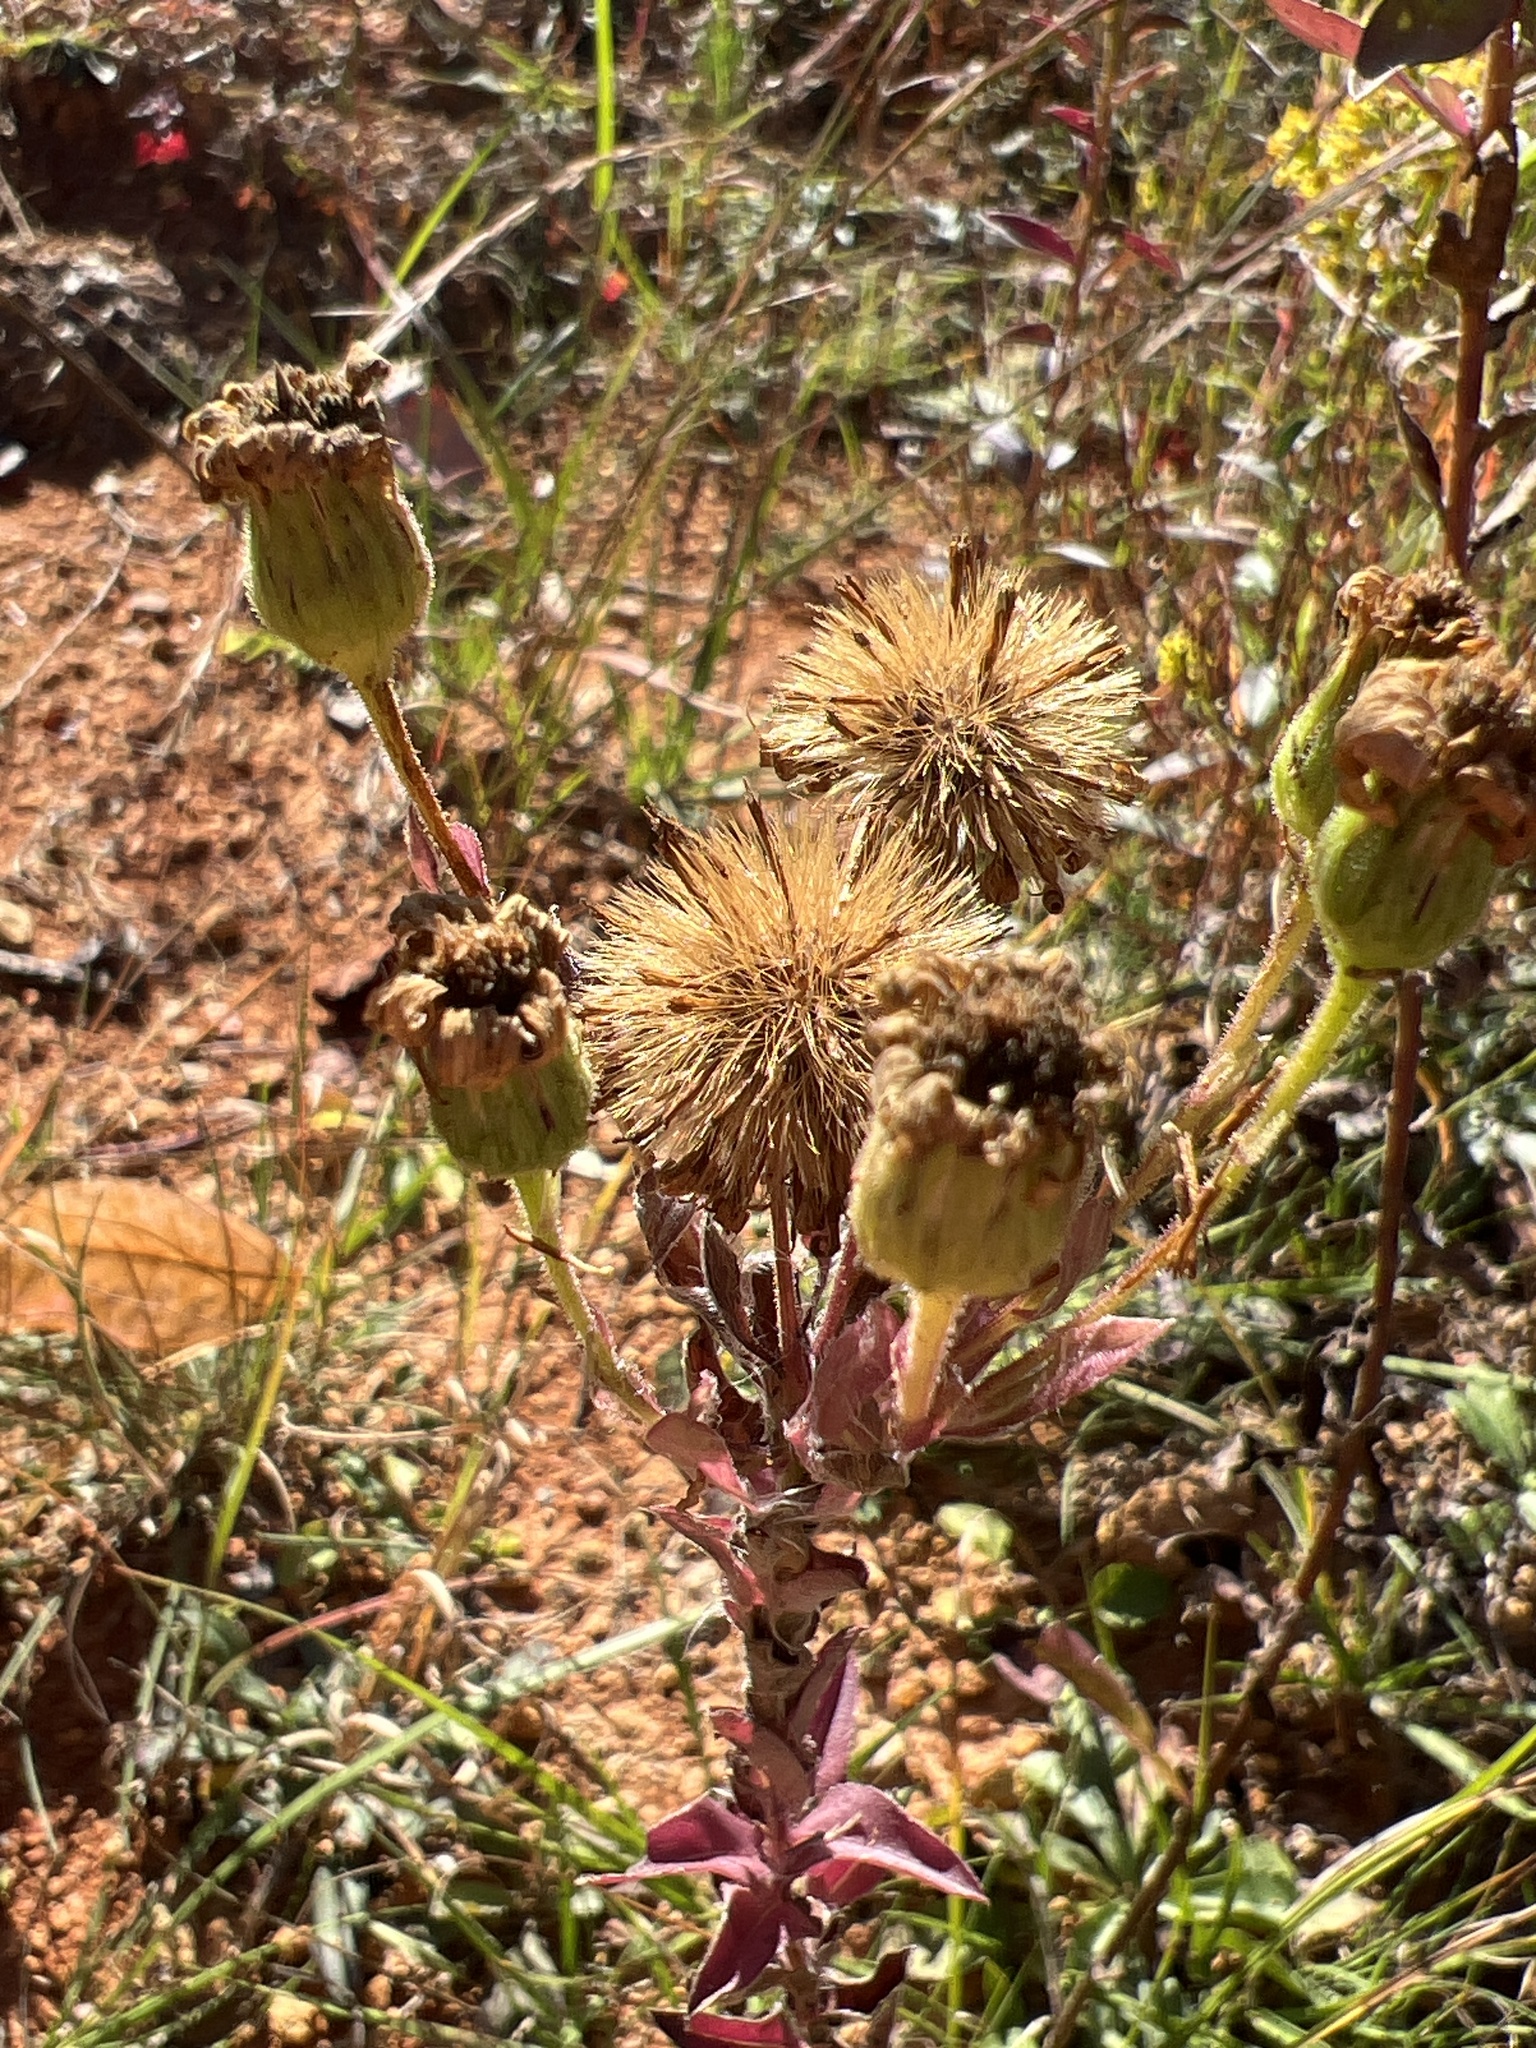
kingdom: Plantae
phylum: Tracheophyta
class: Magnoliopsida
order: Asterales
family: Asteraceae
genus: Chrysopsis
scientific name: Chrysopsis mariana
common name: Maryland golden-aster
